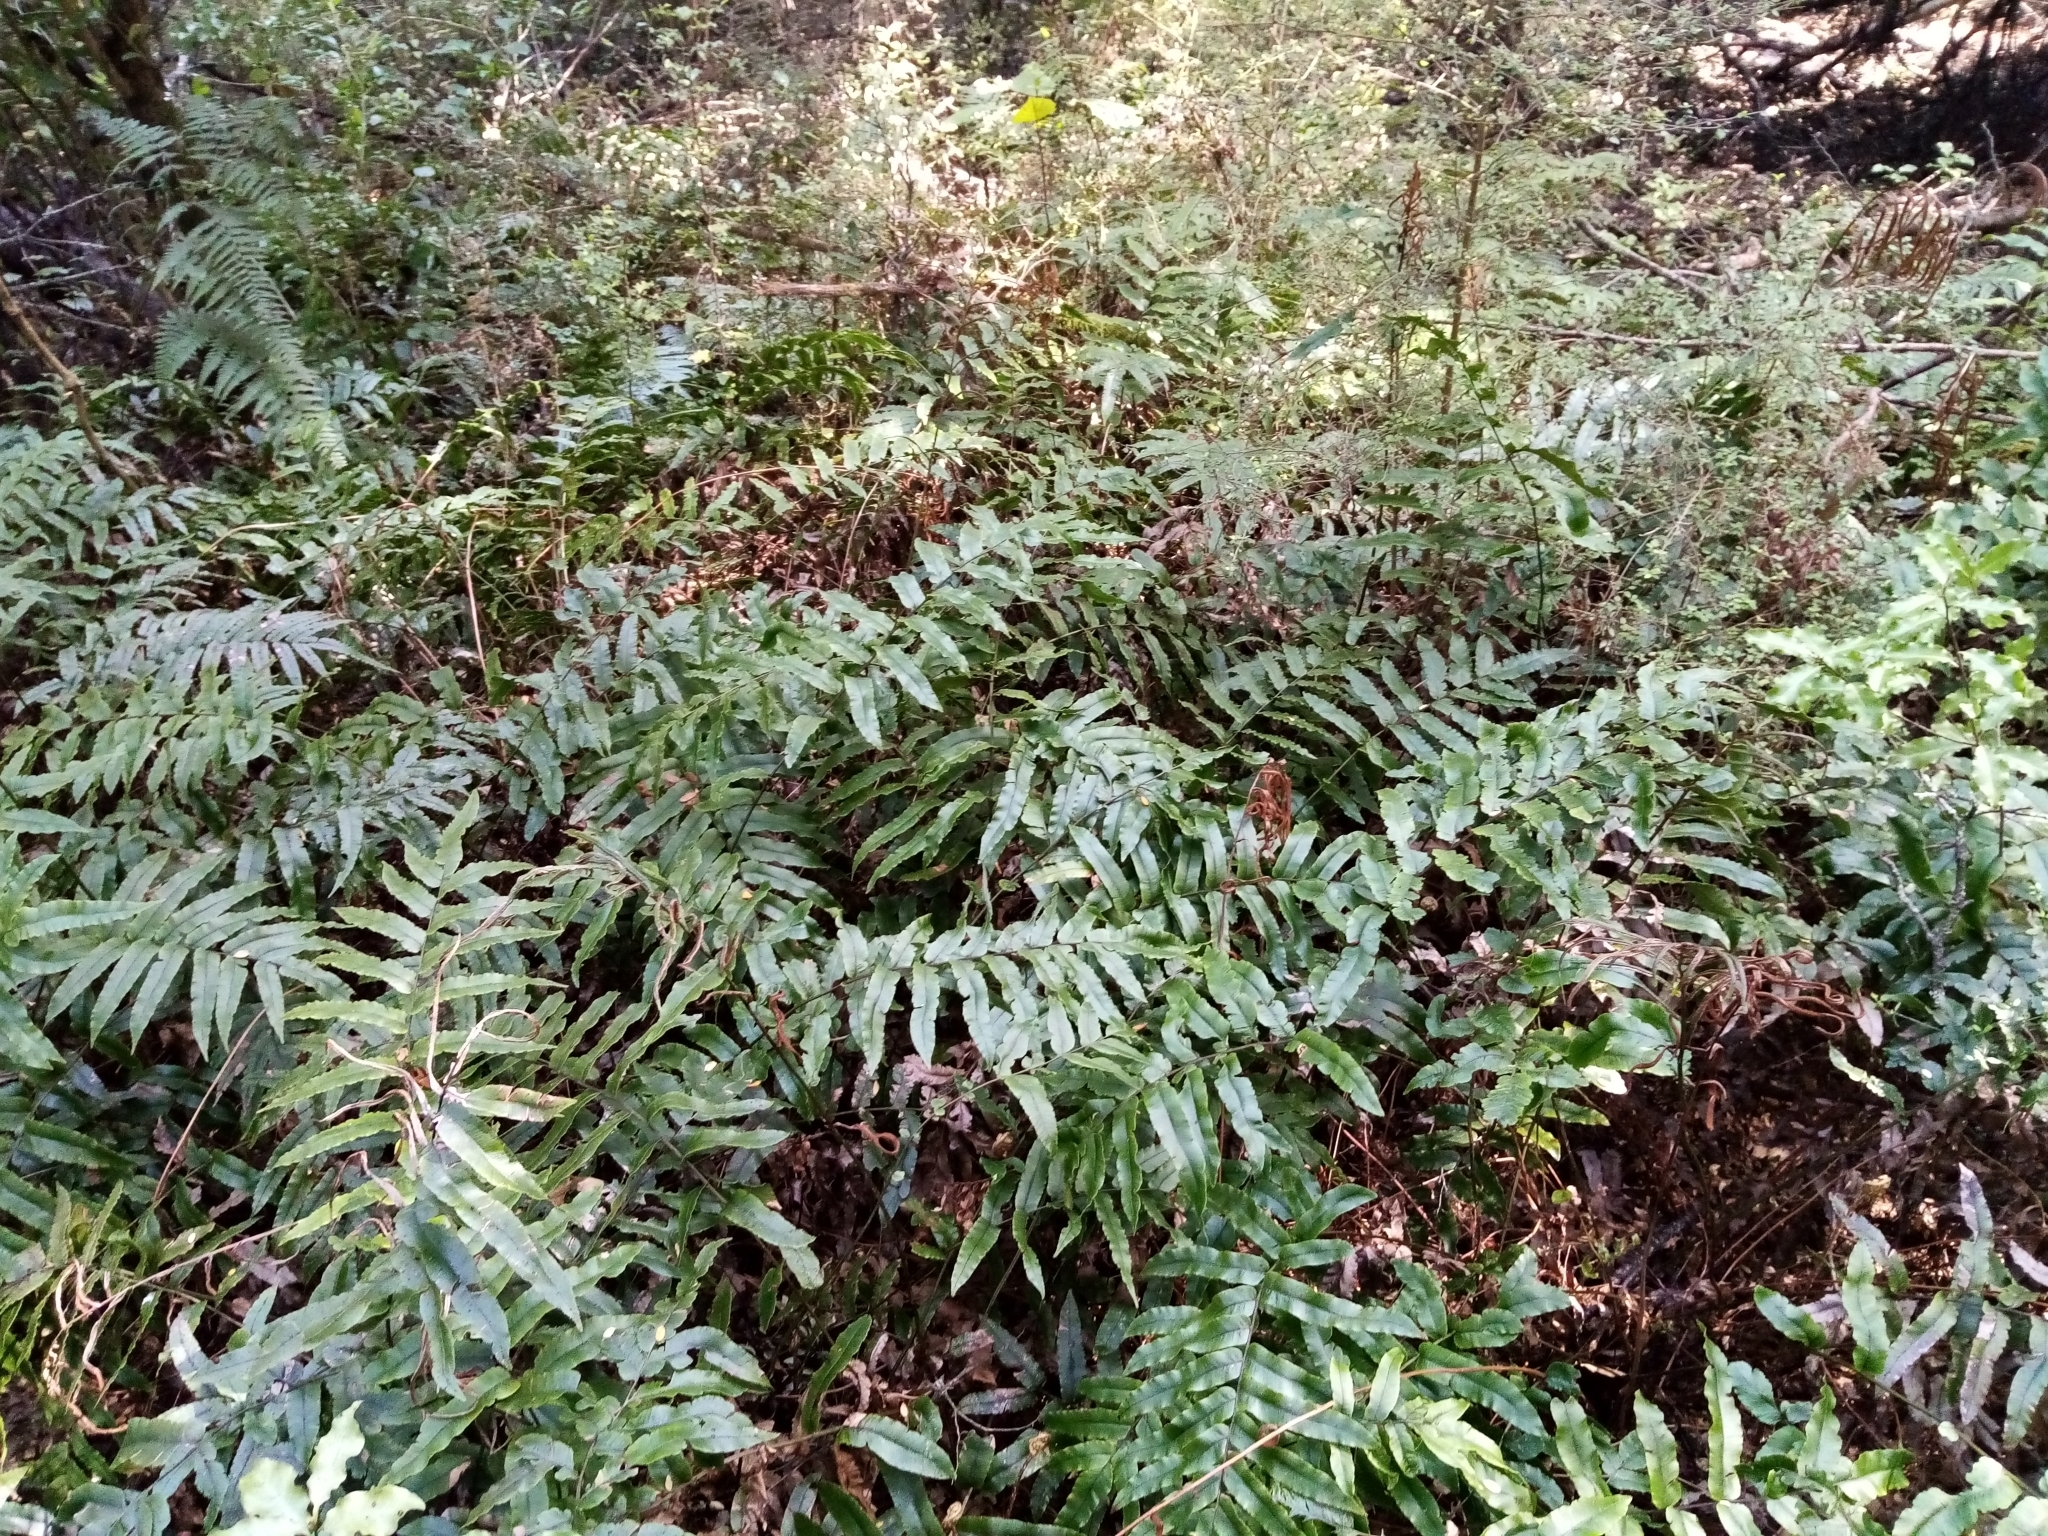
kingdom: Plantae
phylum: Tracheophyta
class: Polypodiopsida
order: Polypodiales
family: Blechnaceae
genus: Parablechnum
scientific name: Parablechnum procerum
